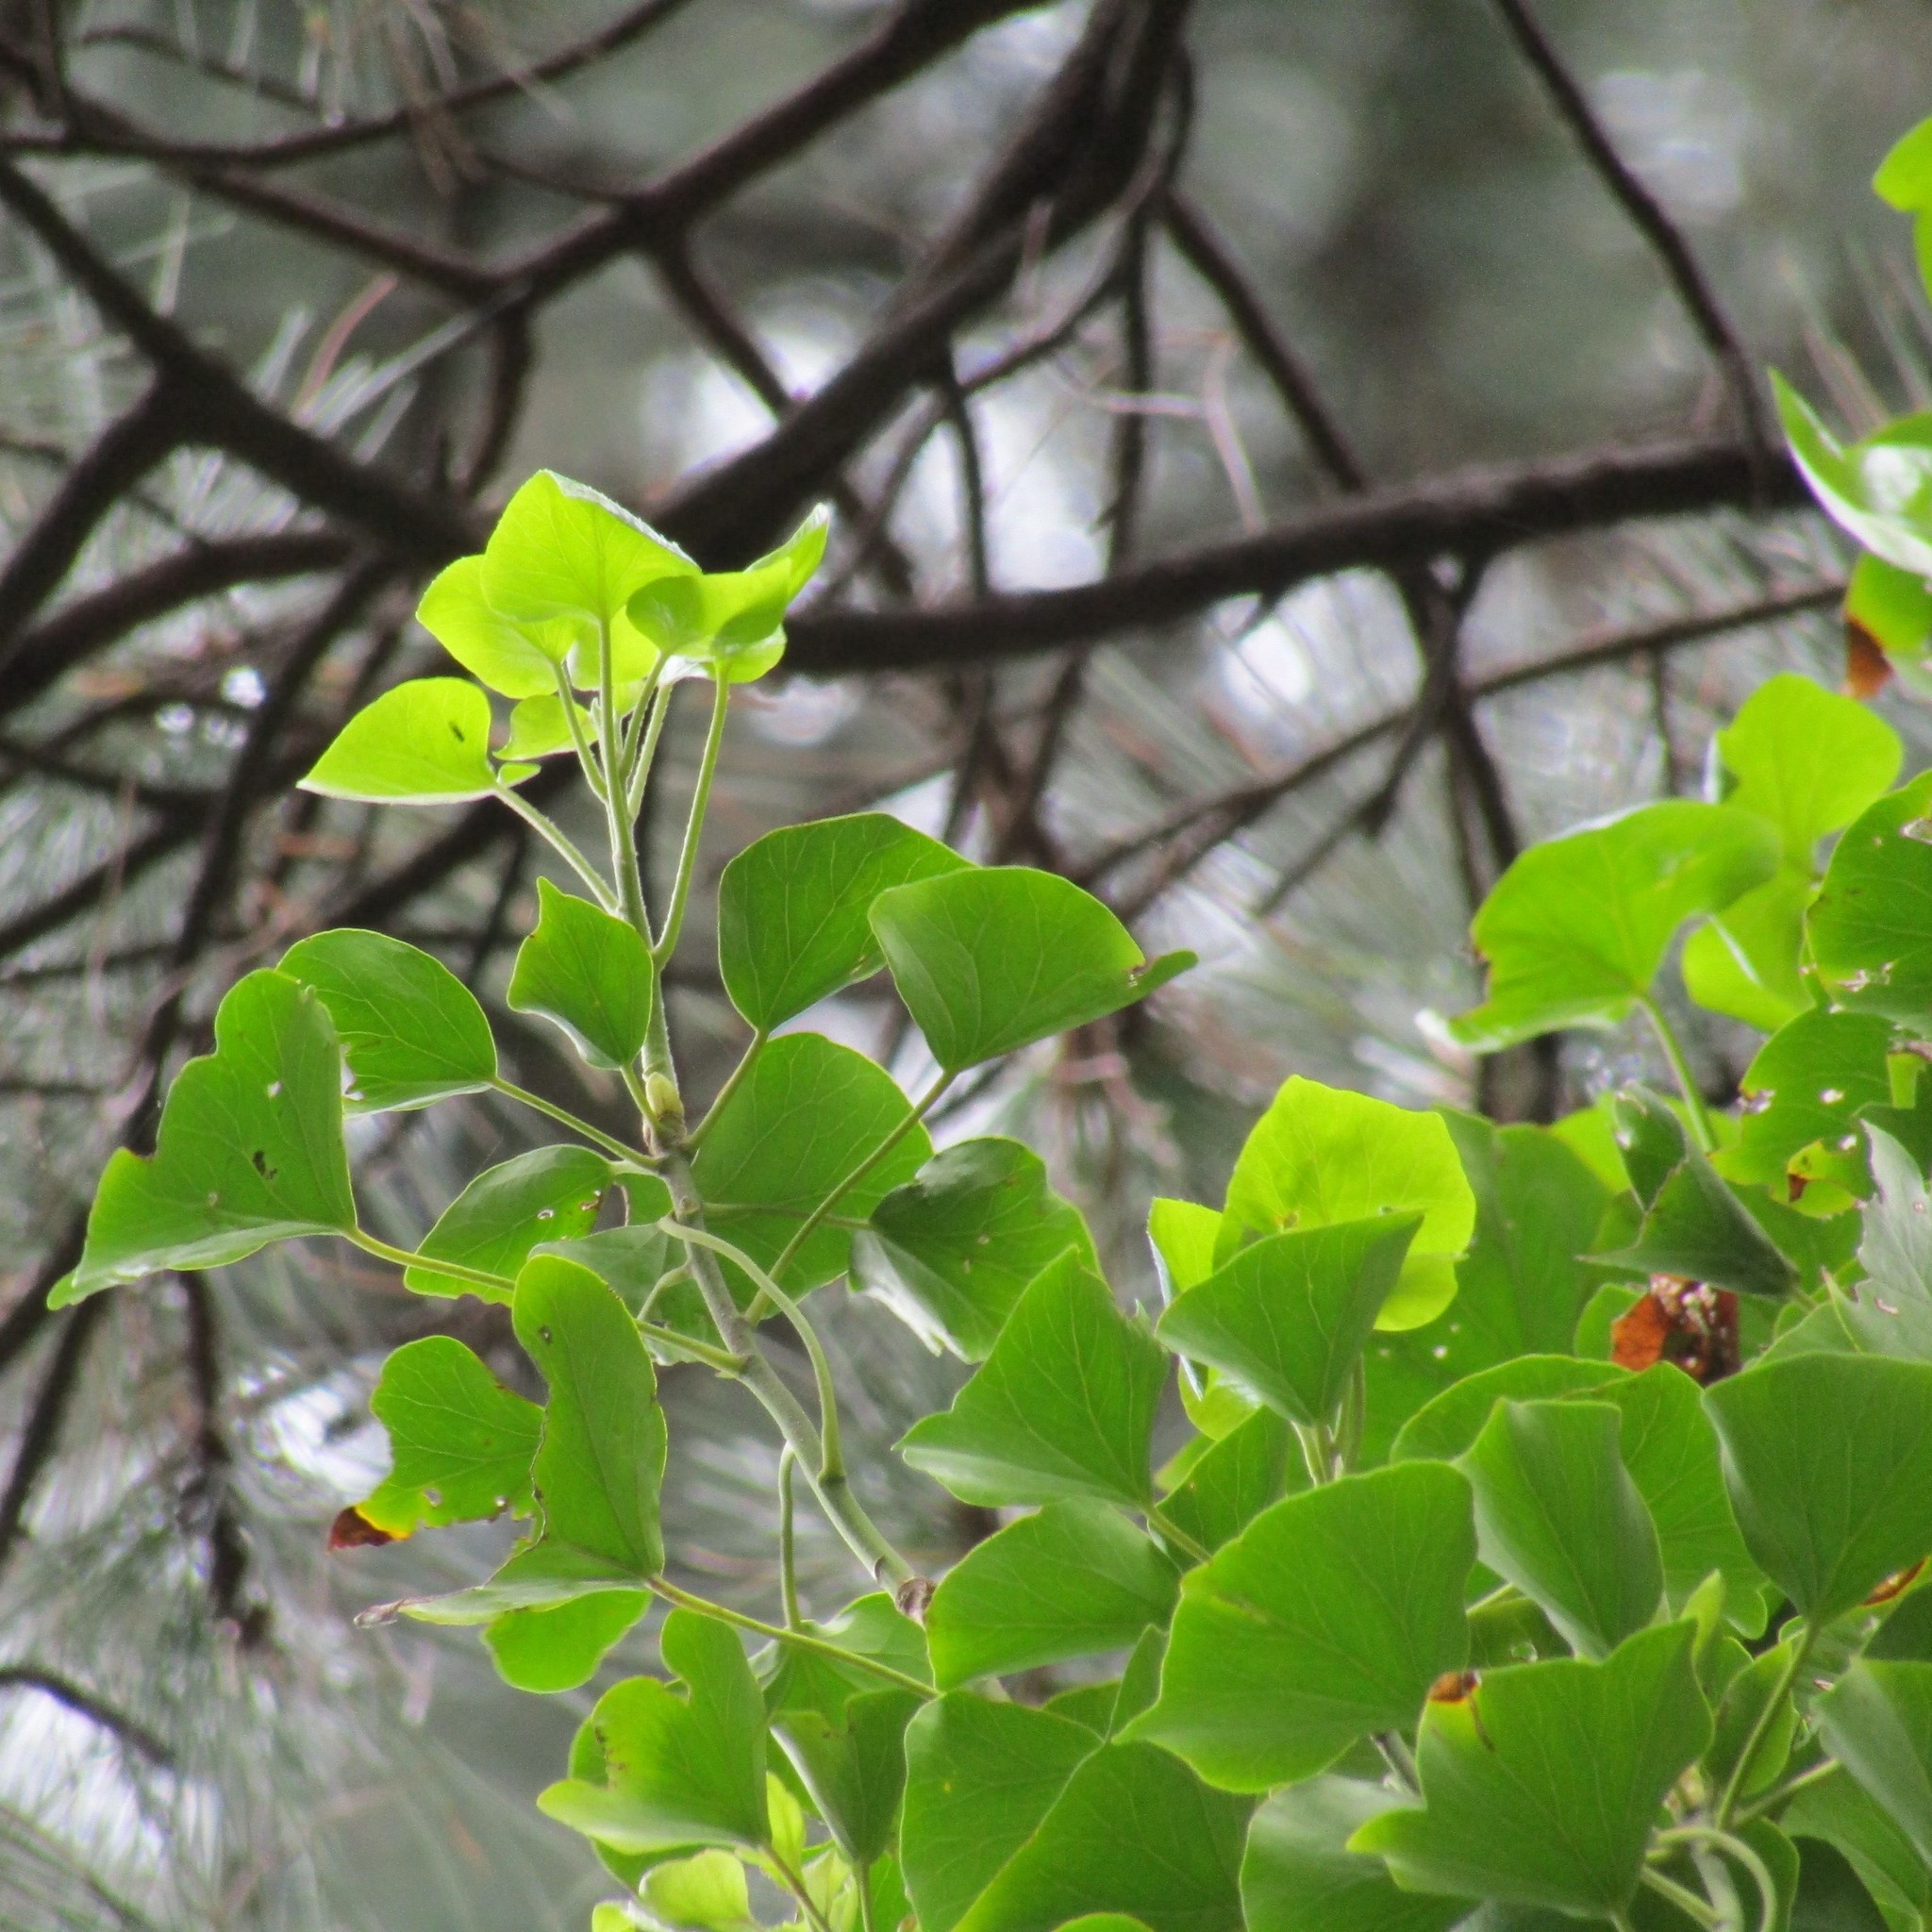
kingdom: Plantae
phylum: Tracheophyta
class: Magnoliopsida
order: Apiales
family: Araliaceae
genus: Hedera
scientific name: Hedera helix
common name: Ivy
